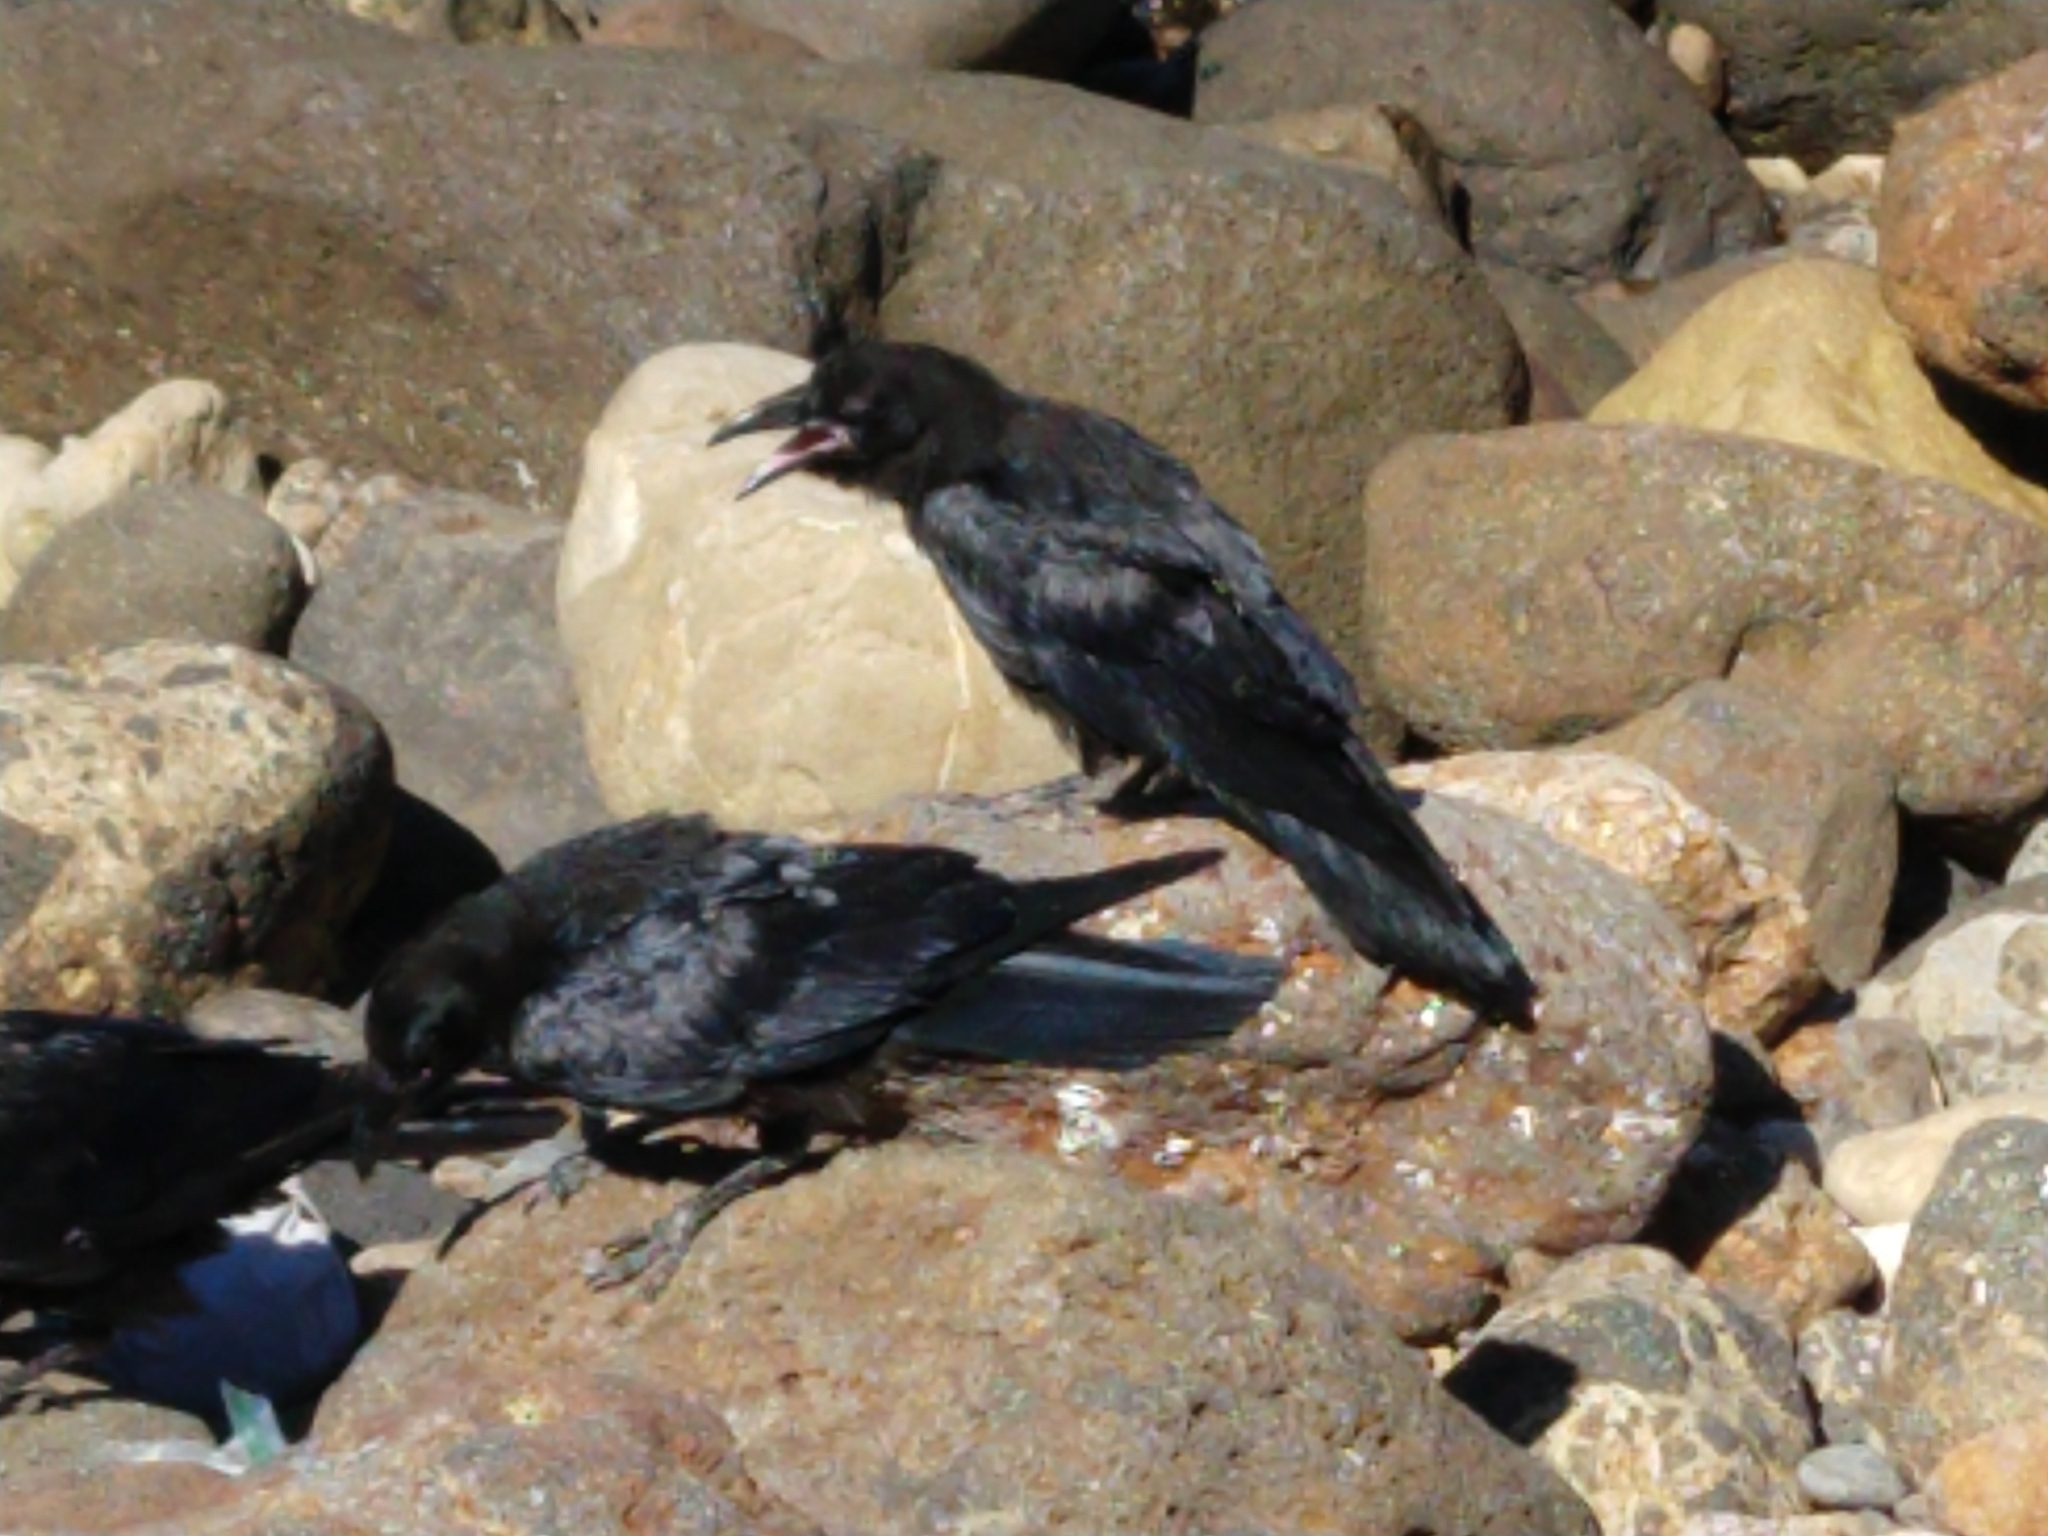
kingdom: Animalia
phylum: Chordata
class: Aves
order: Passeriformes
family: Corvidae
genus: Corvus
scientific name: Corvus corax
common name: Common raven
